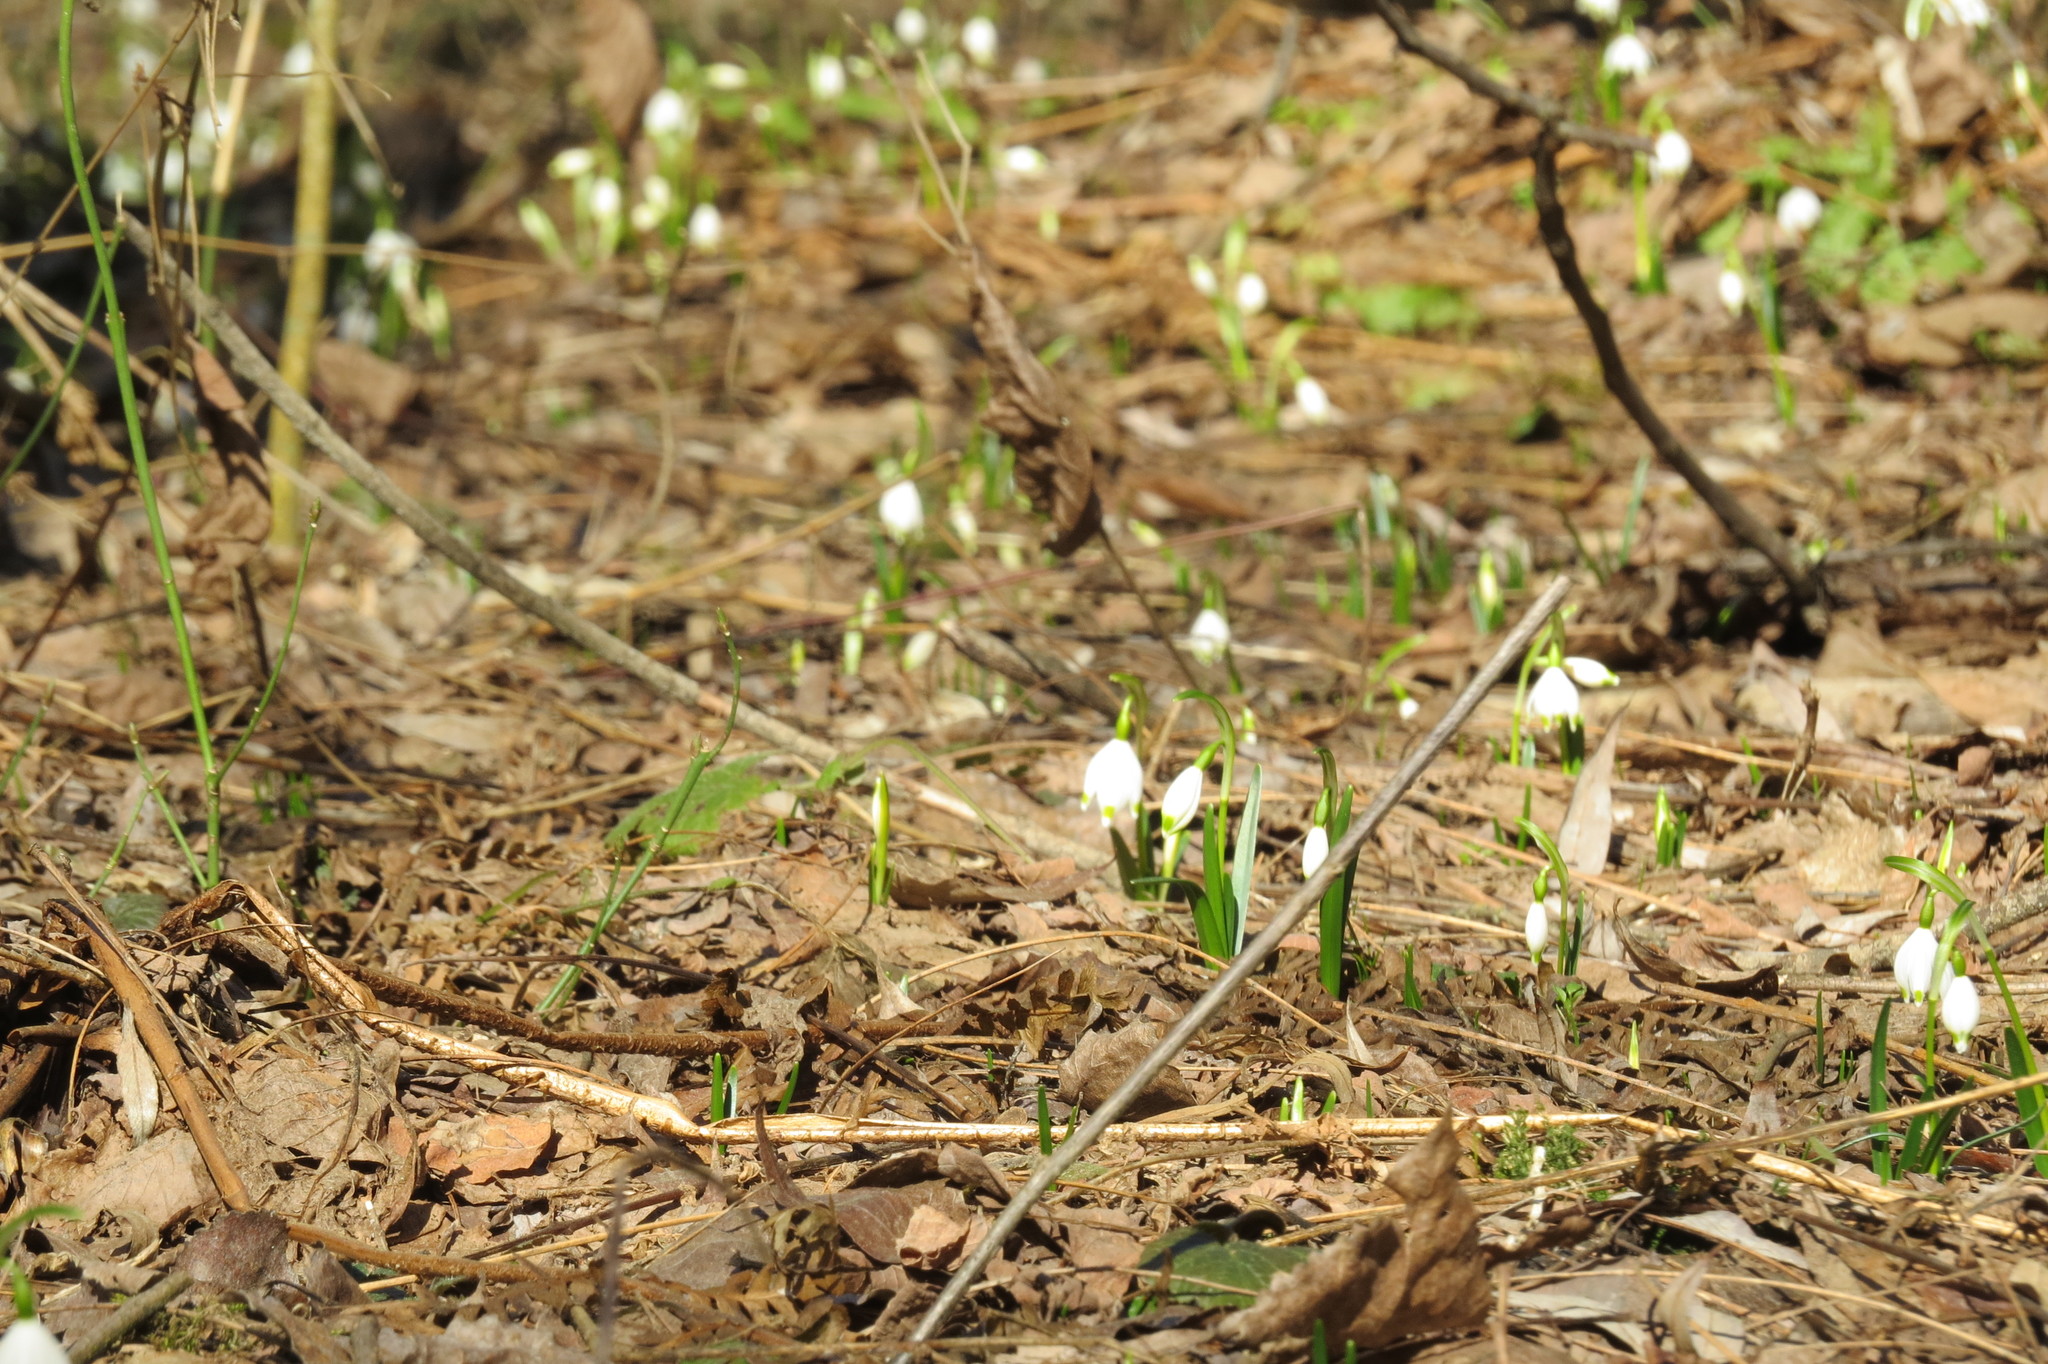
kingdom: Plantae
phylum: Tracheophyta
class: Liliopsida
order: Asparagales
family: Amaryllidaceae
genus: Leucojum
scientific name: Leucojum vernum
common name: Spring snowflake
